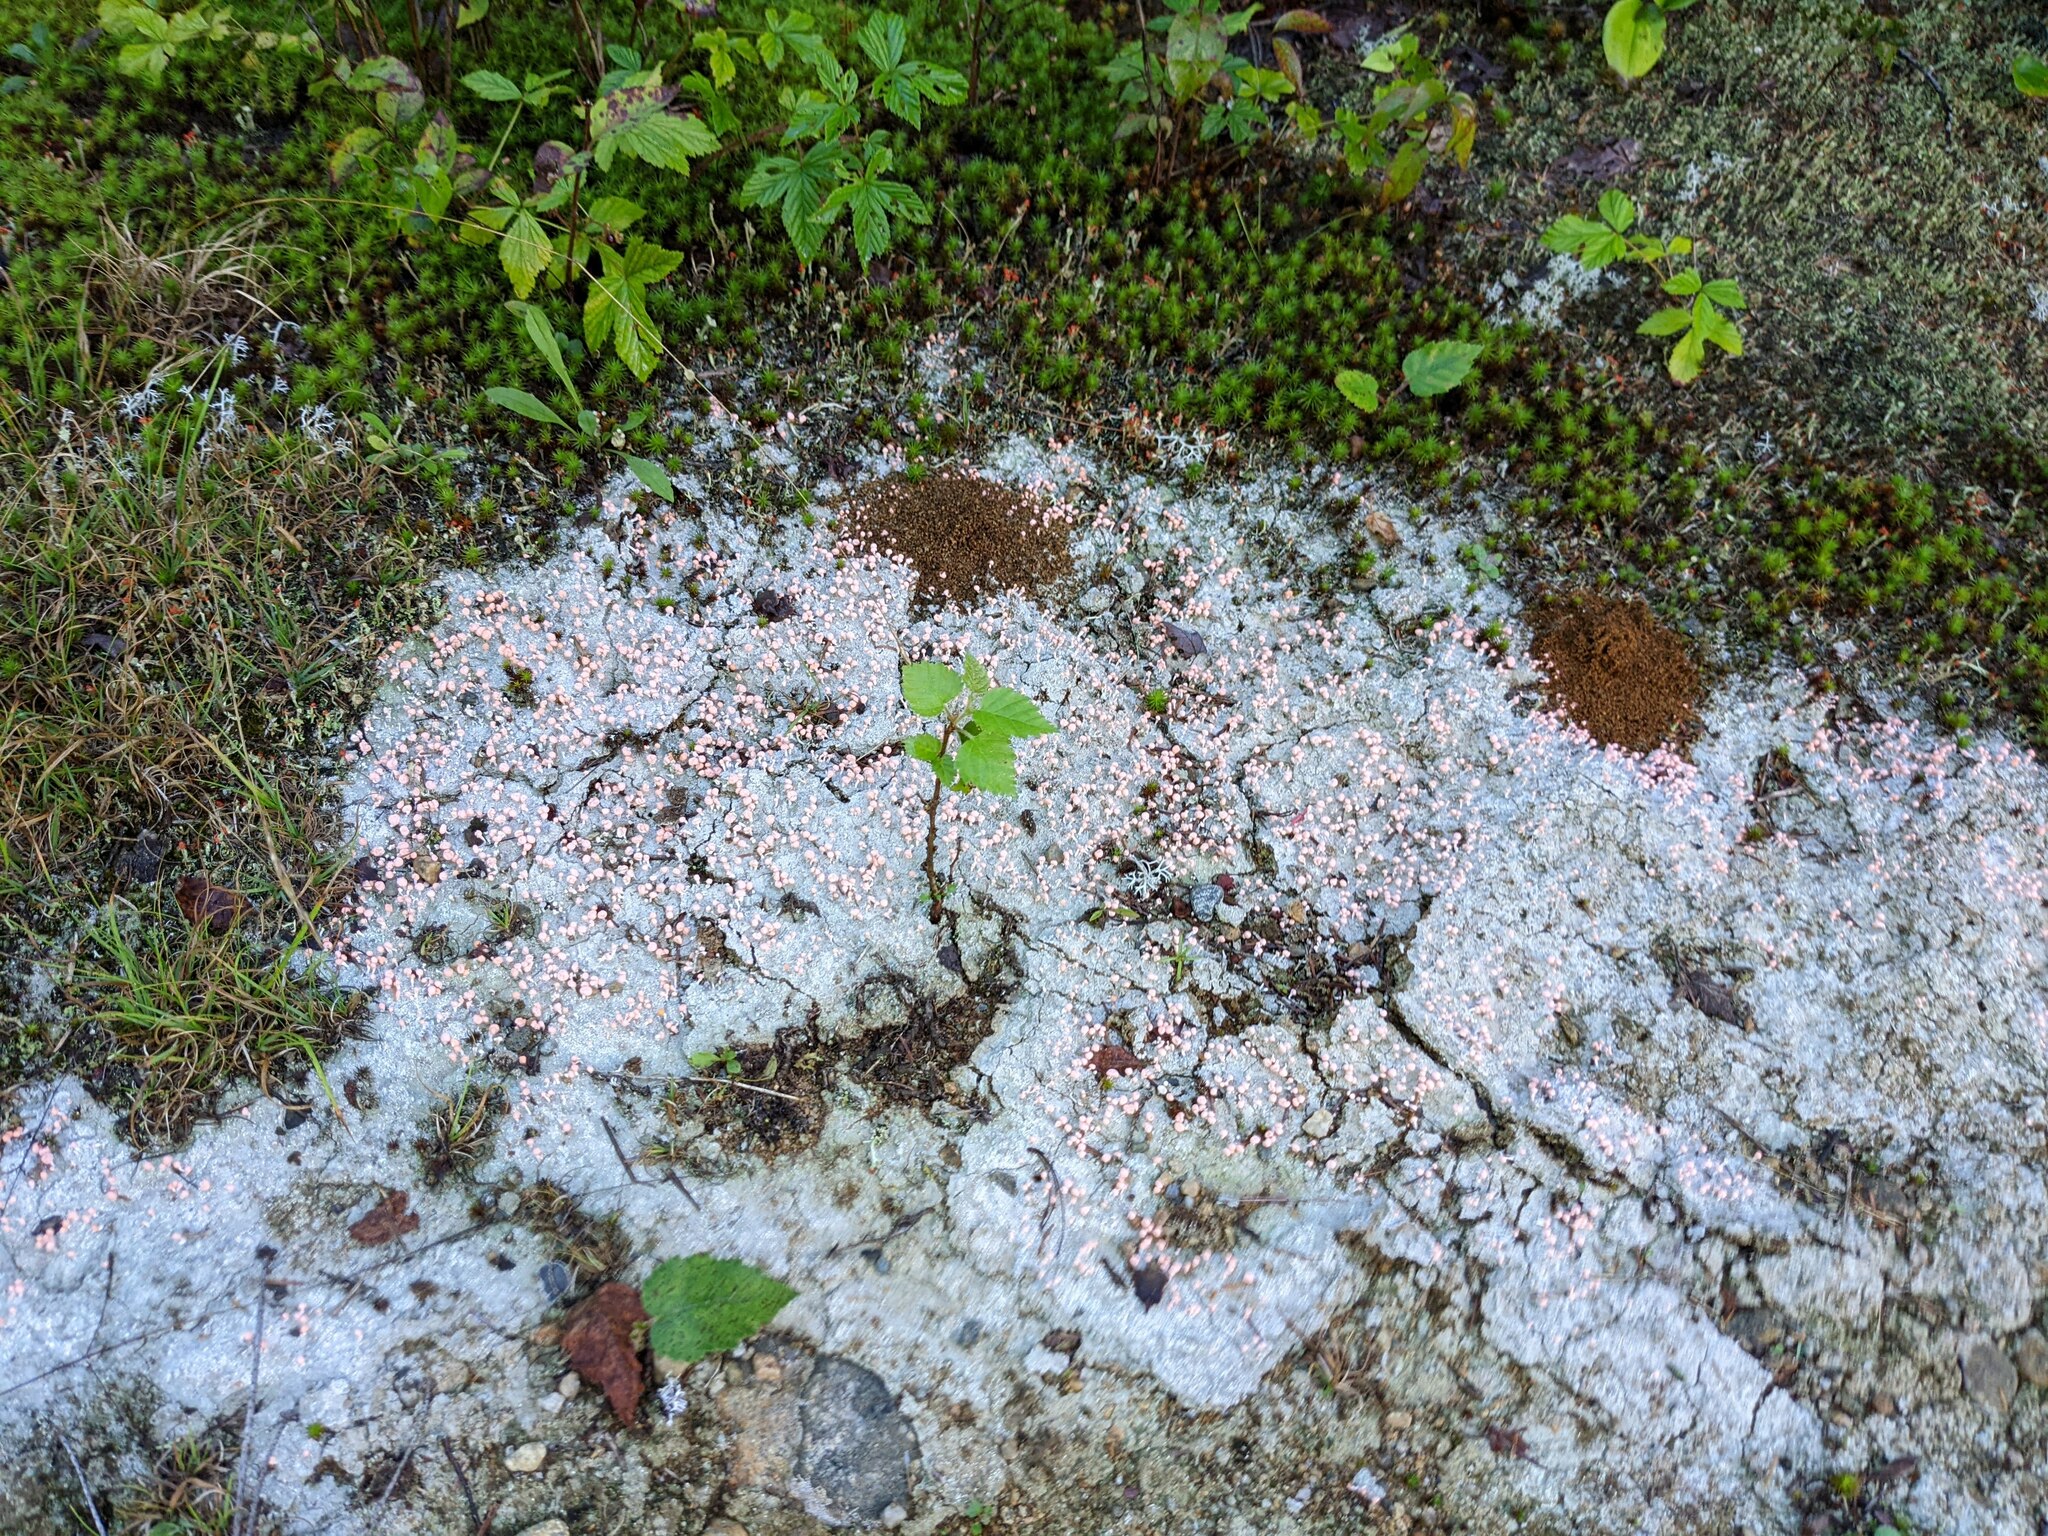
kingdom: Fungi
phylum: Ascomycota
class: Lecanoromycetes
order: Pertusariales
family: Icmadophilaceae
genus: Dibaeis
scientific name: Dibaeis baeomyces
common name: Pink earth lichen
